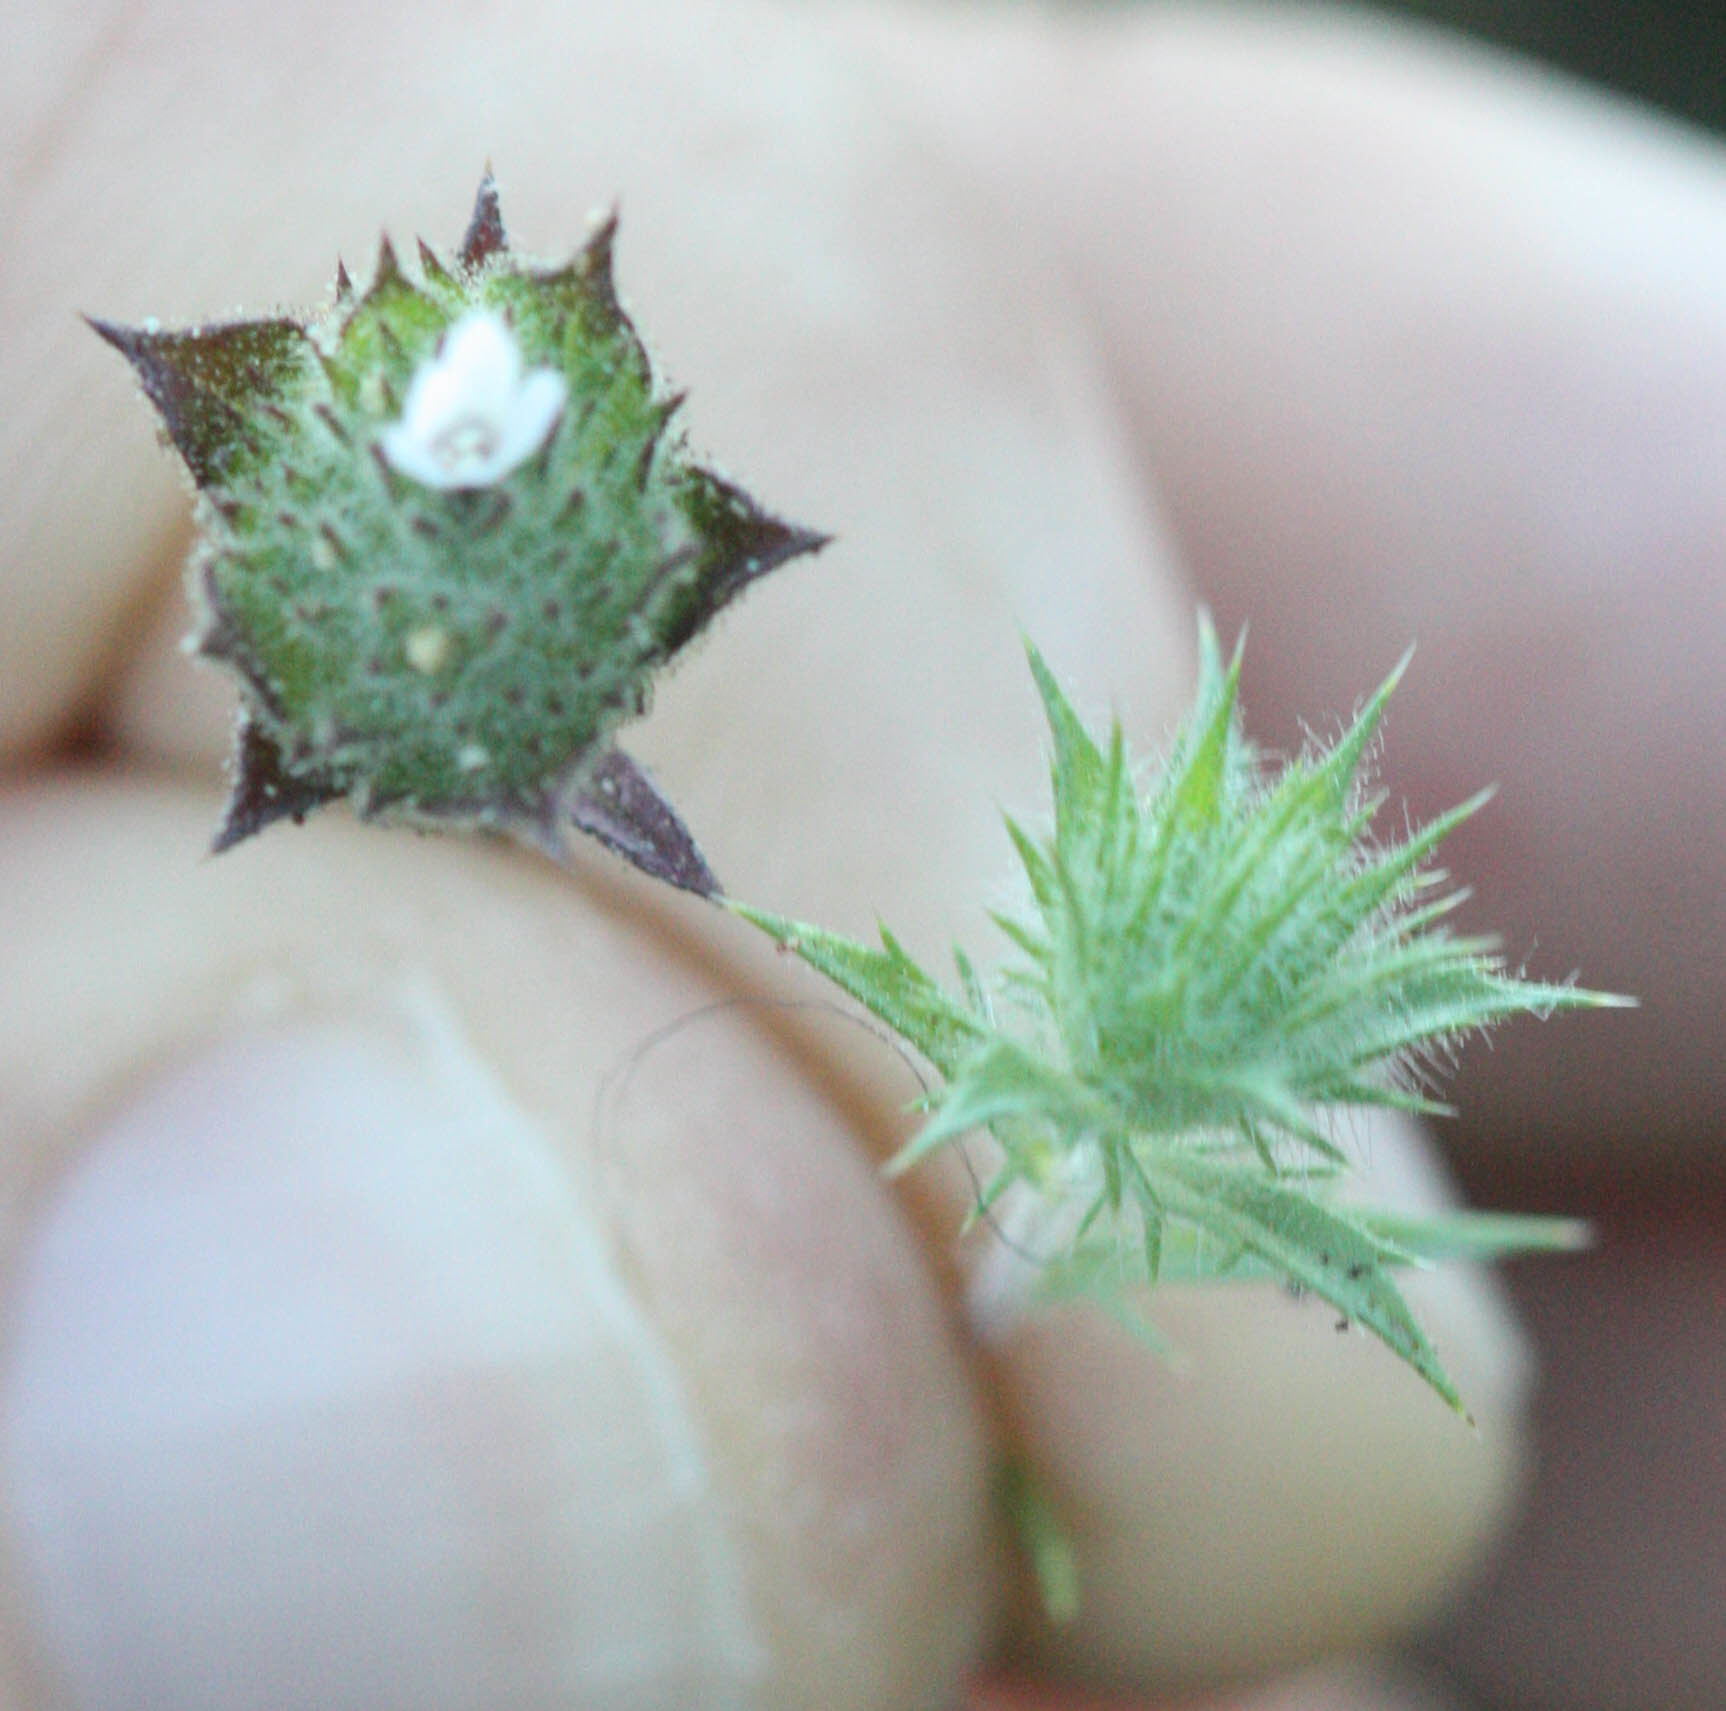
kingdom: Plantae
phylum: Tracheophyta
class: Magnoliopsida
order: Ericales
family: Polemoniaceae
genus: Navarretia
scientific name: Navarretia rosulata
